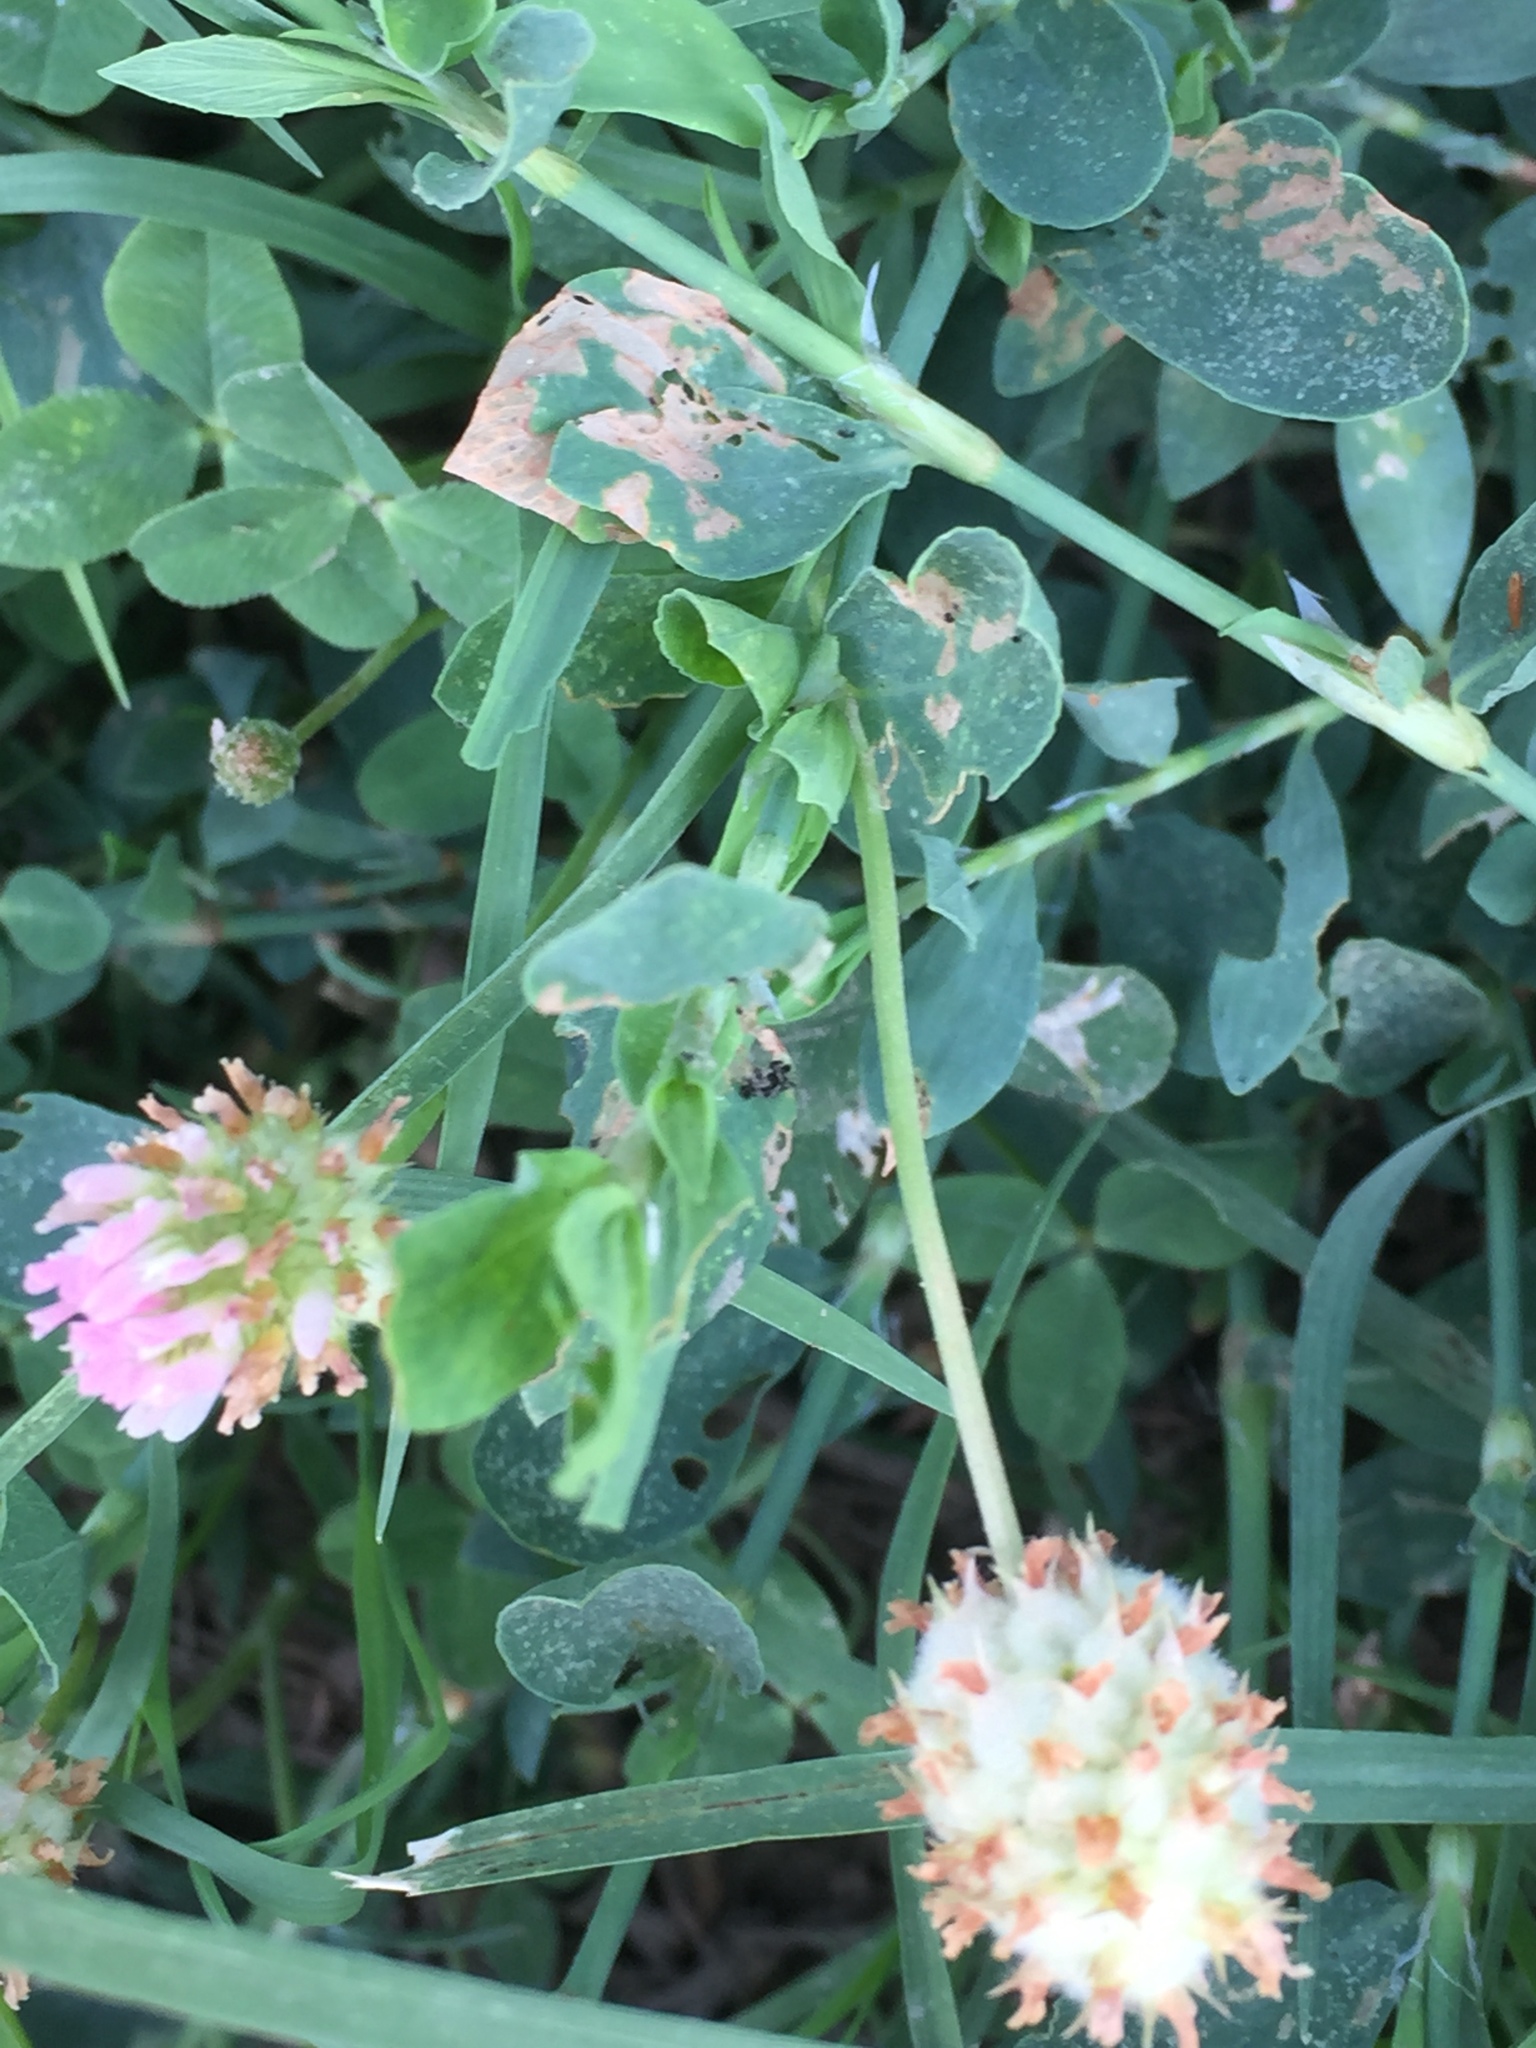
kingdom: Plantae
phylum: Tracheophyta
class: Magnoliopsida
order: Fabales
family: Fabaceae
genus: Trifolium
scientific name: Trifolium fragiferum
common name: Strawberry clover
